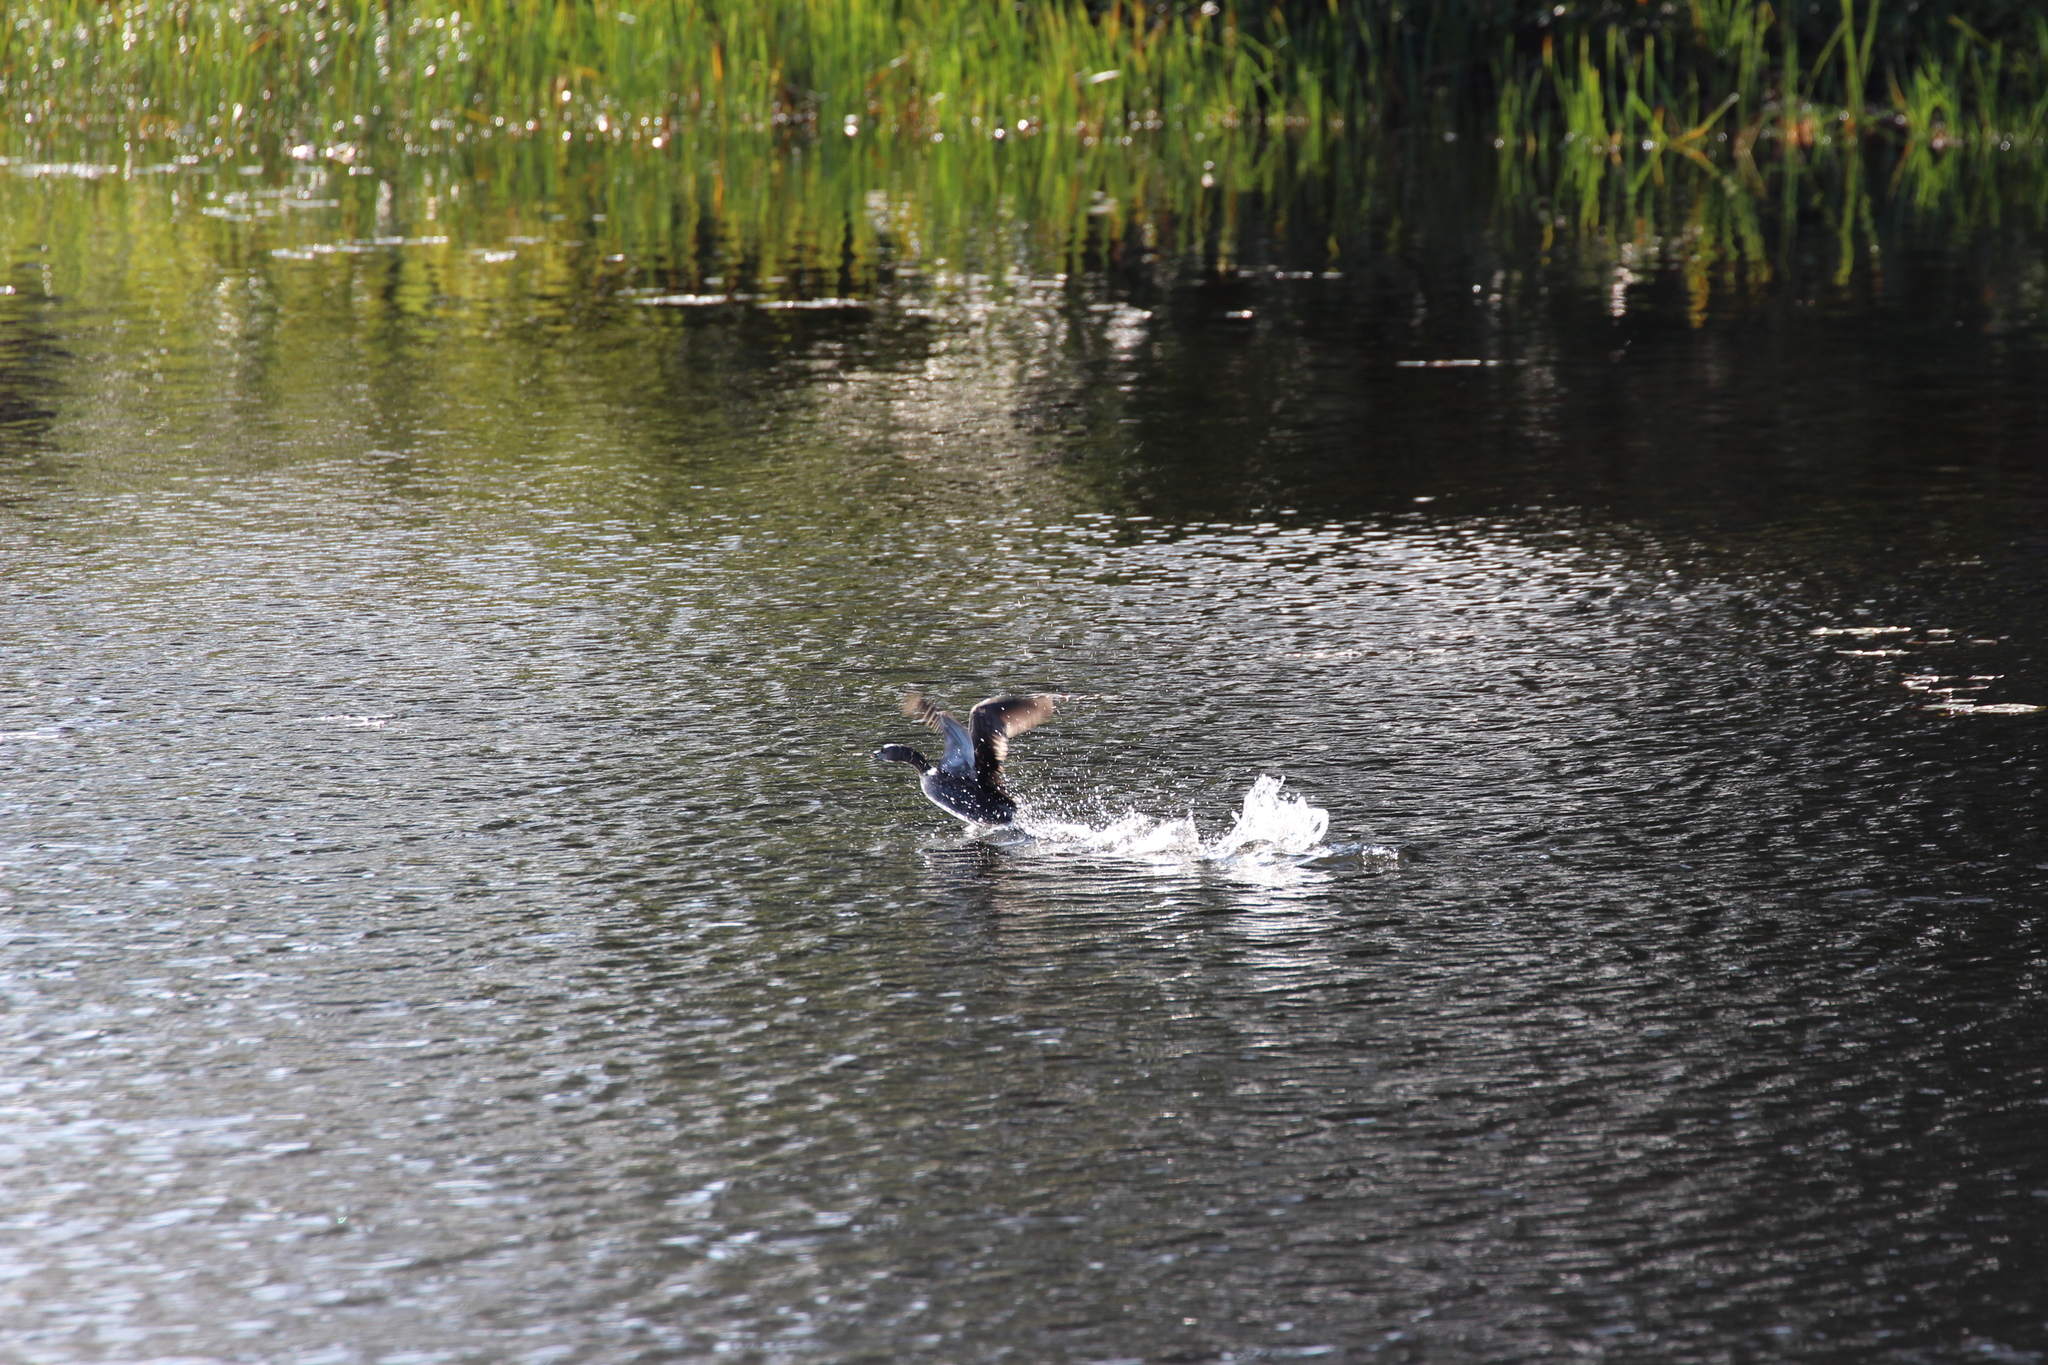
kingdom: Animalia
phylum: Chordata
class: Aves
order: Podicipediformes
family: Podicipedidae
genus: Podilymbus
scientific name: Podilymbus podiceps
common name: Pied-billed grebe
